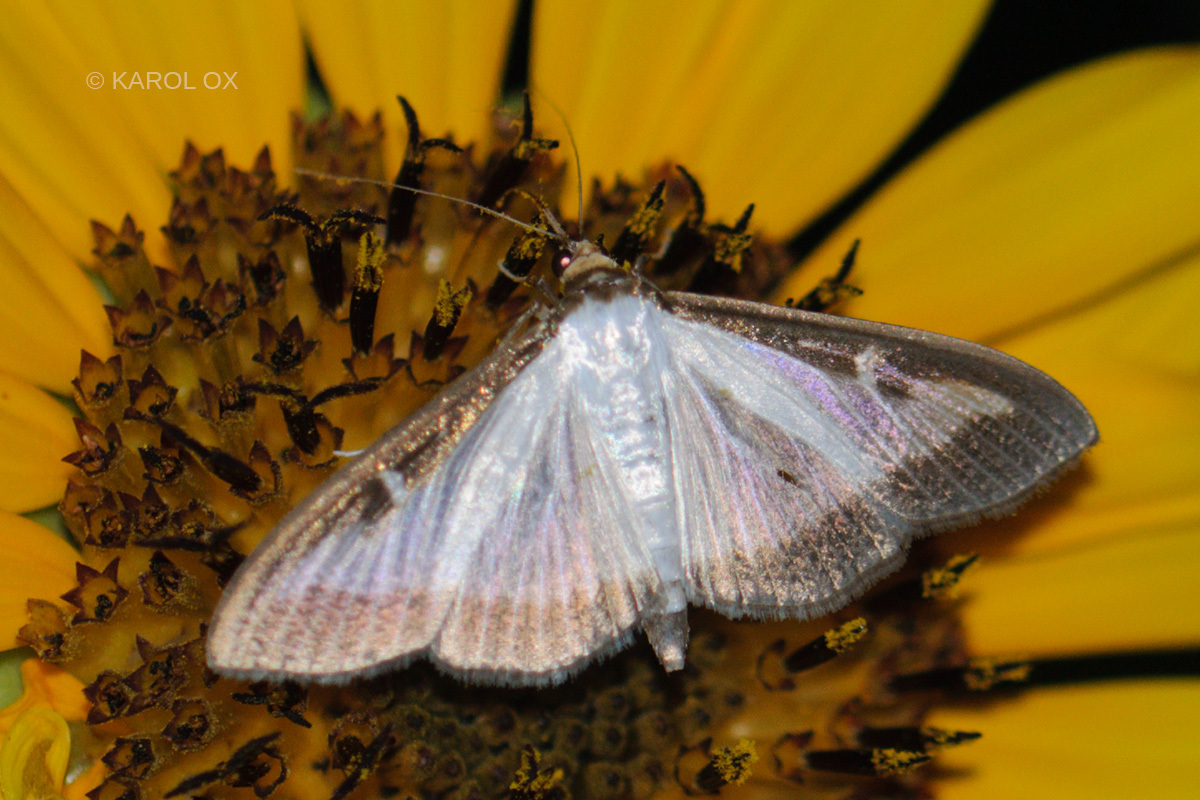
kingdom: Animalia
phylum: Arthropoda
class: Insecta
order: Lepidoptera
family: Crambidae
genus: Cydalima
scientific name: Cydalima perspectalis
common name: Box tree moth
